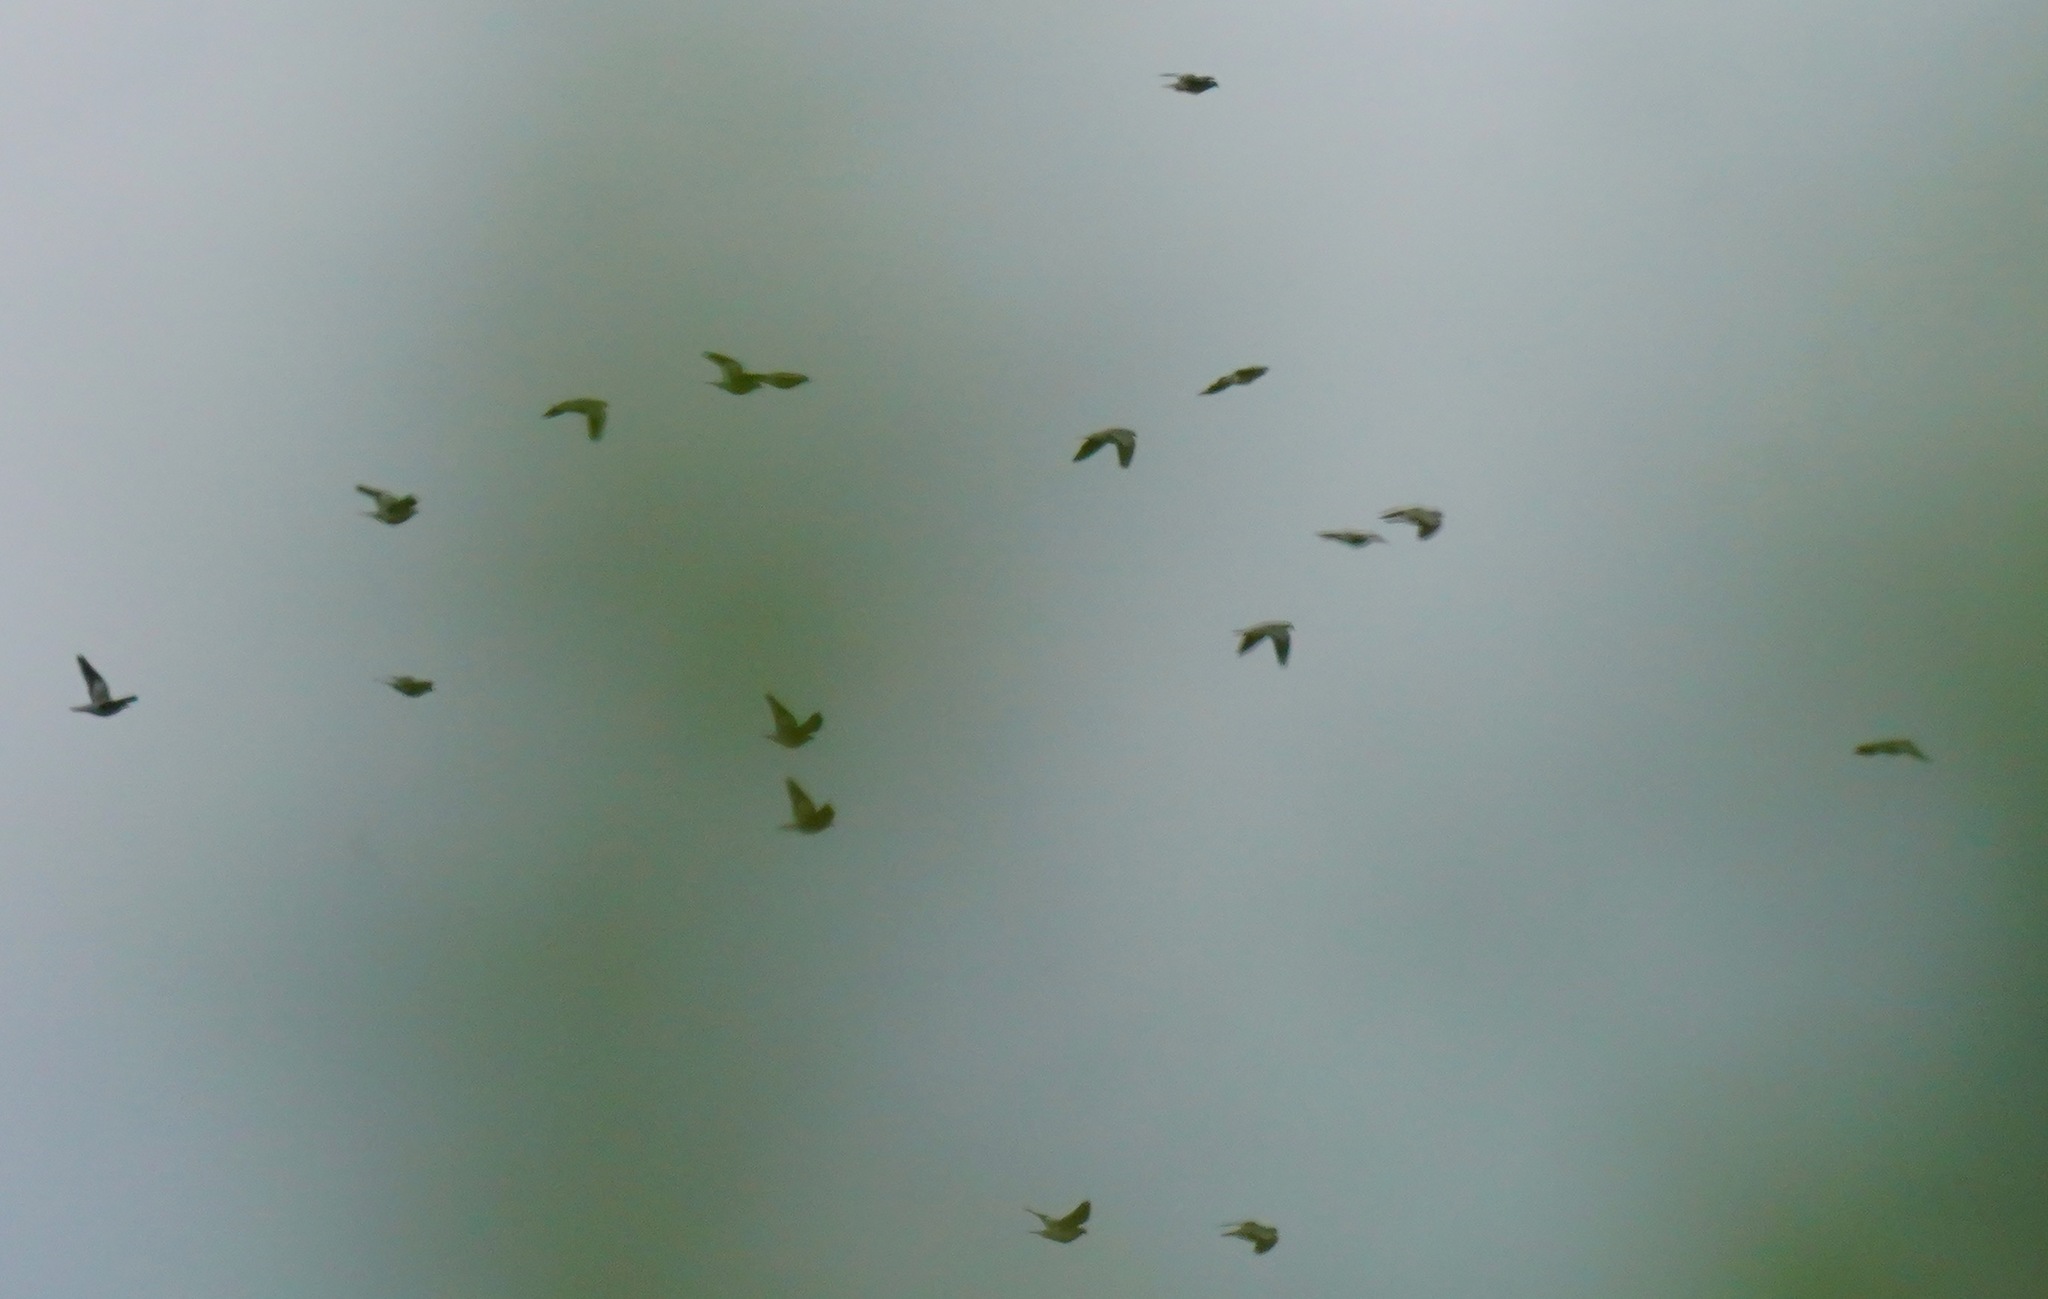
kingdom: Animalia
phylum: Chordata
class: Aves
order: Columbiformes
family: Columbidae
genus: Patagioenas
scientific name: Patagioenas fasciata
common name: Band-tailed pigeon
